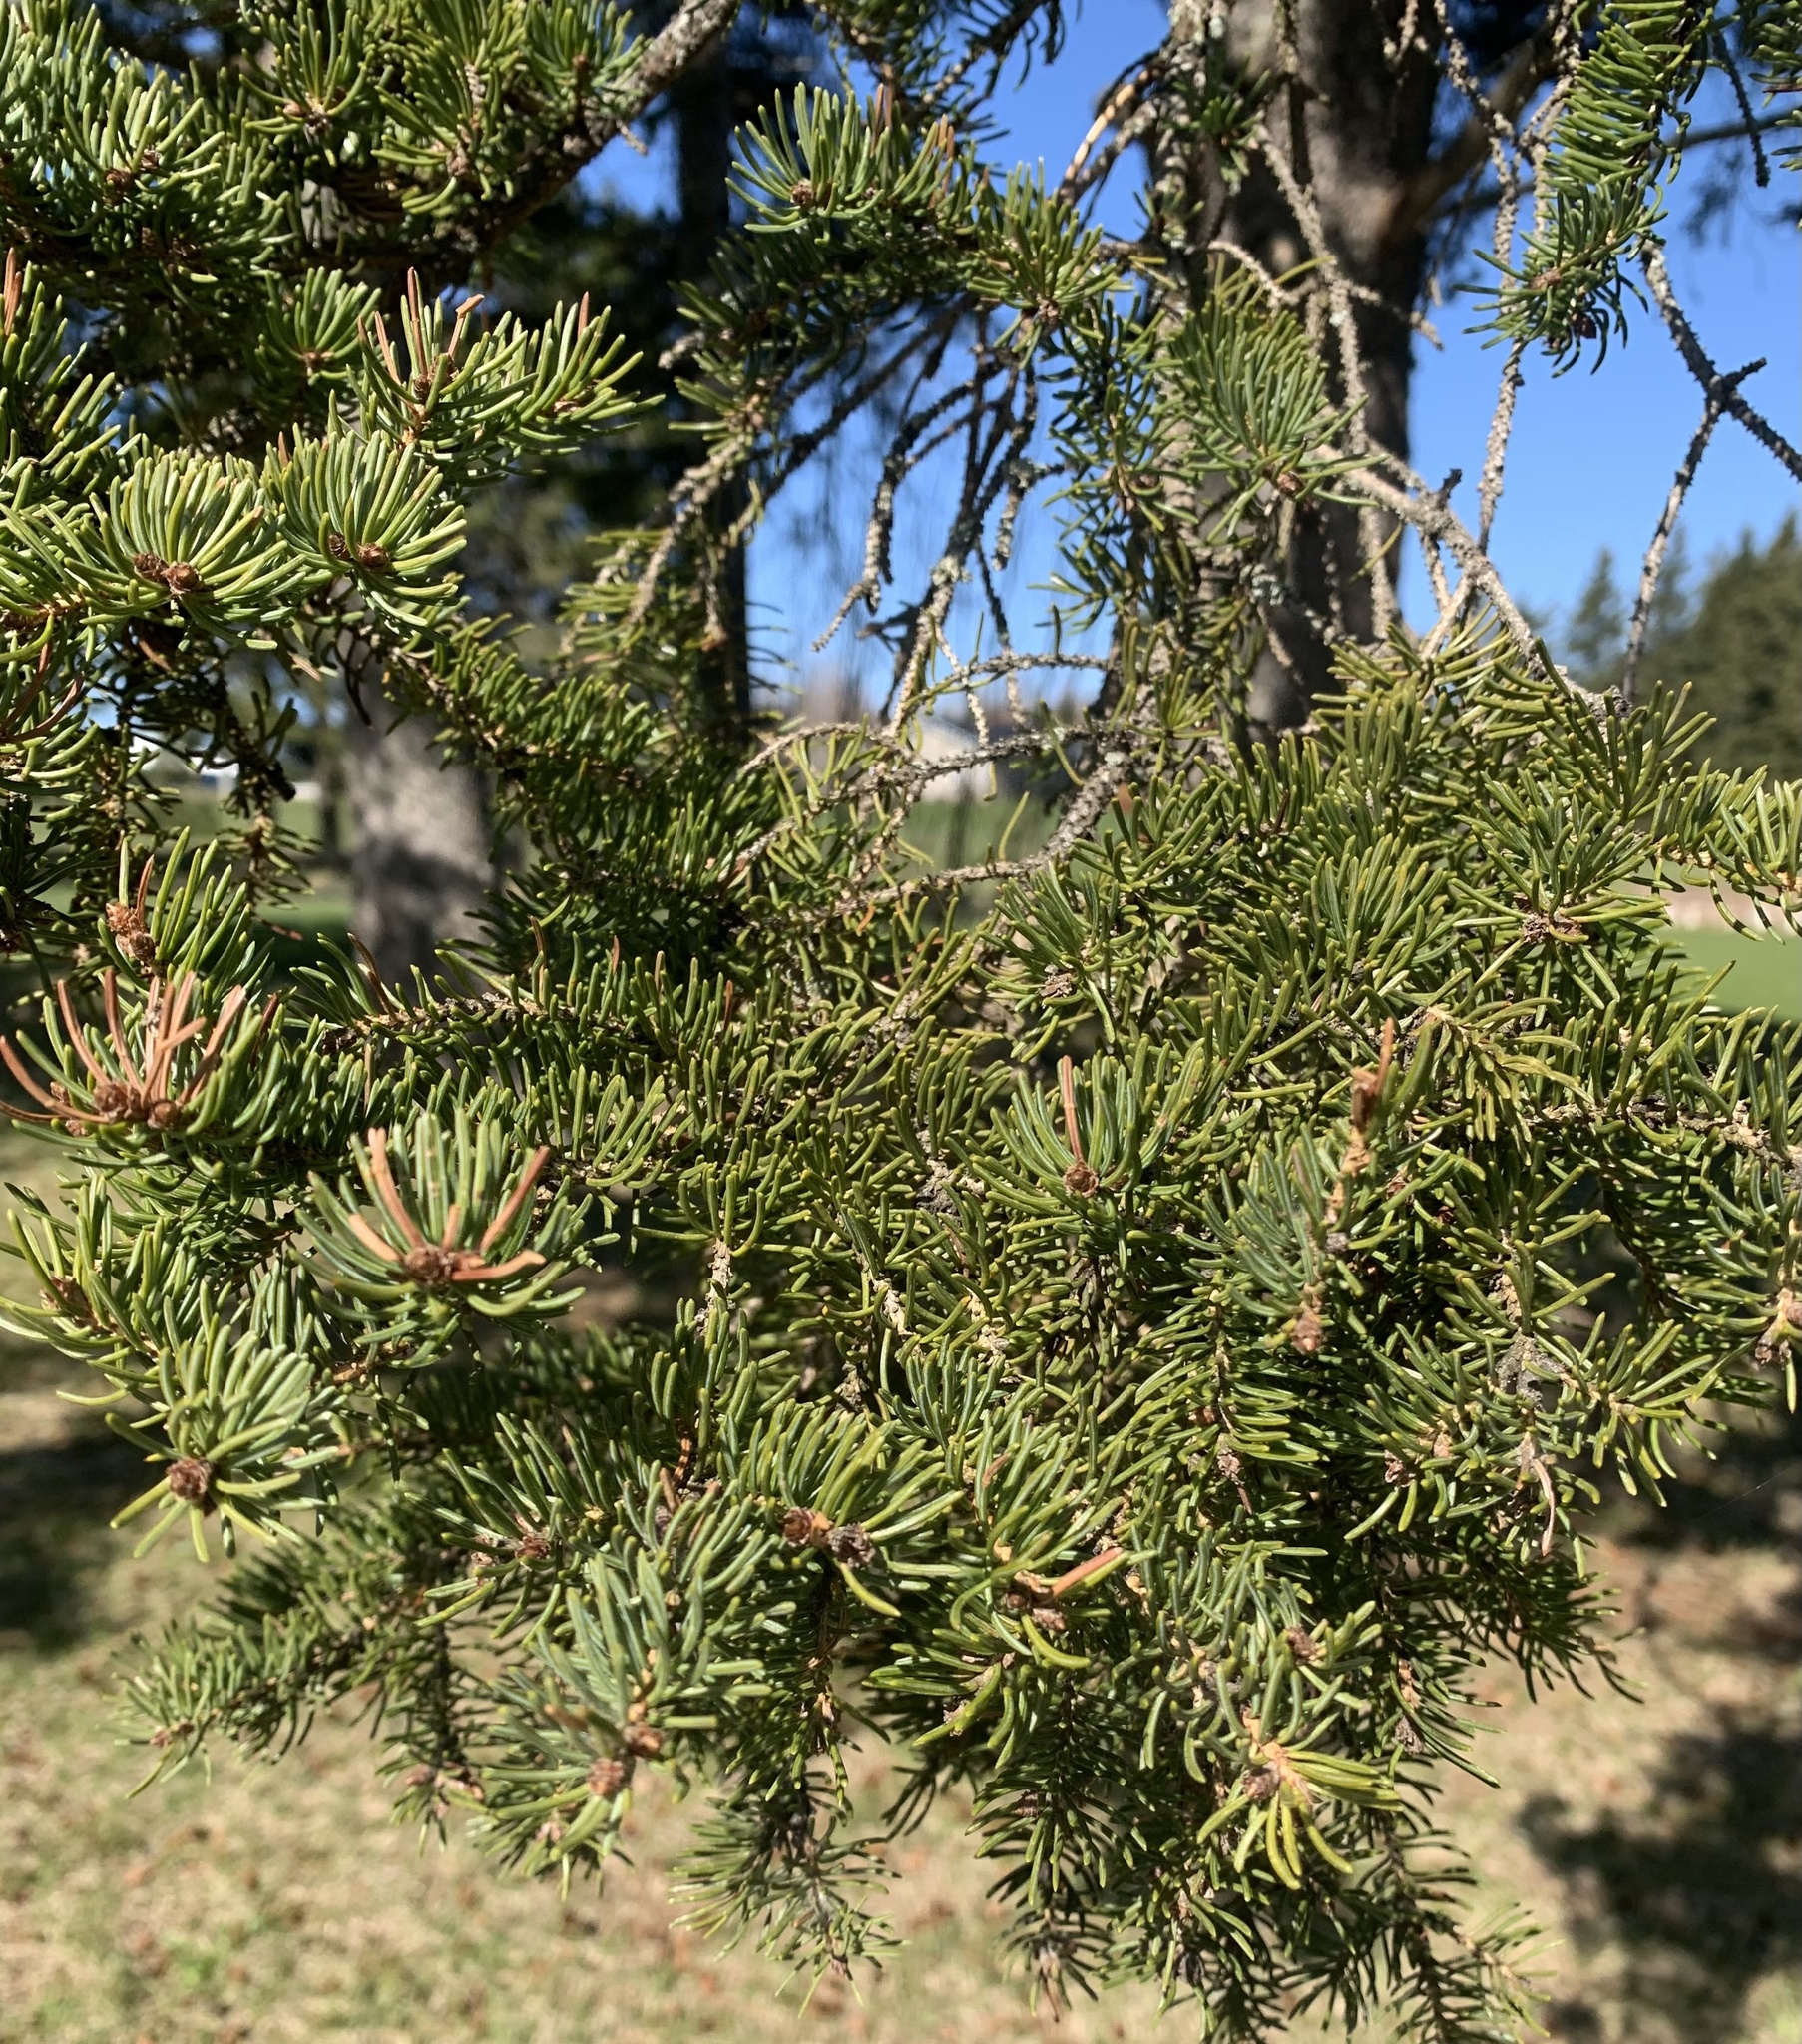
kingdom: Plantae
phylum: Tracheophyta
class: Pinopsida
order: Pinales
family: Pinaceae
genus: Picea
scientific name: Picea glauca
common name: White spruce
